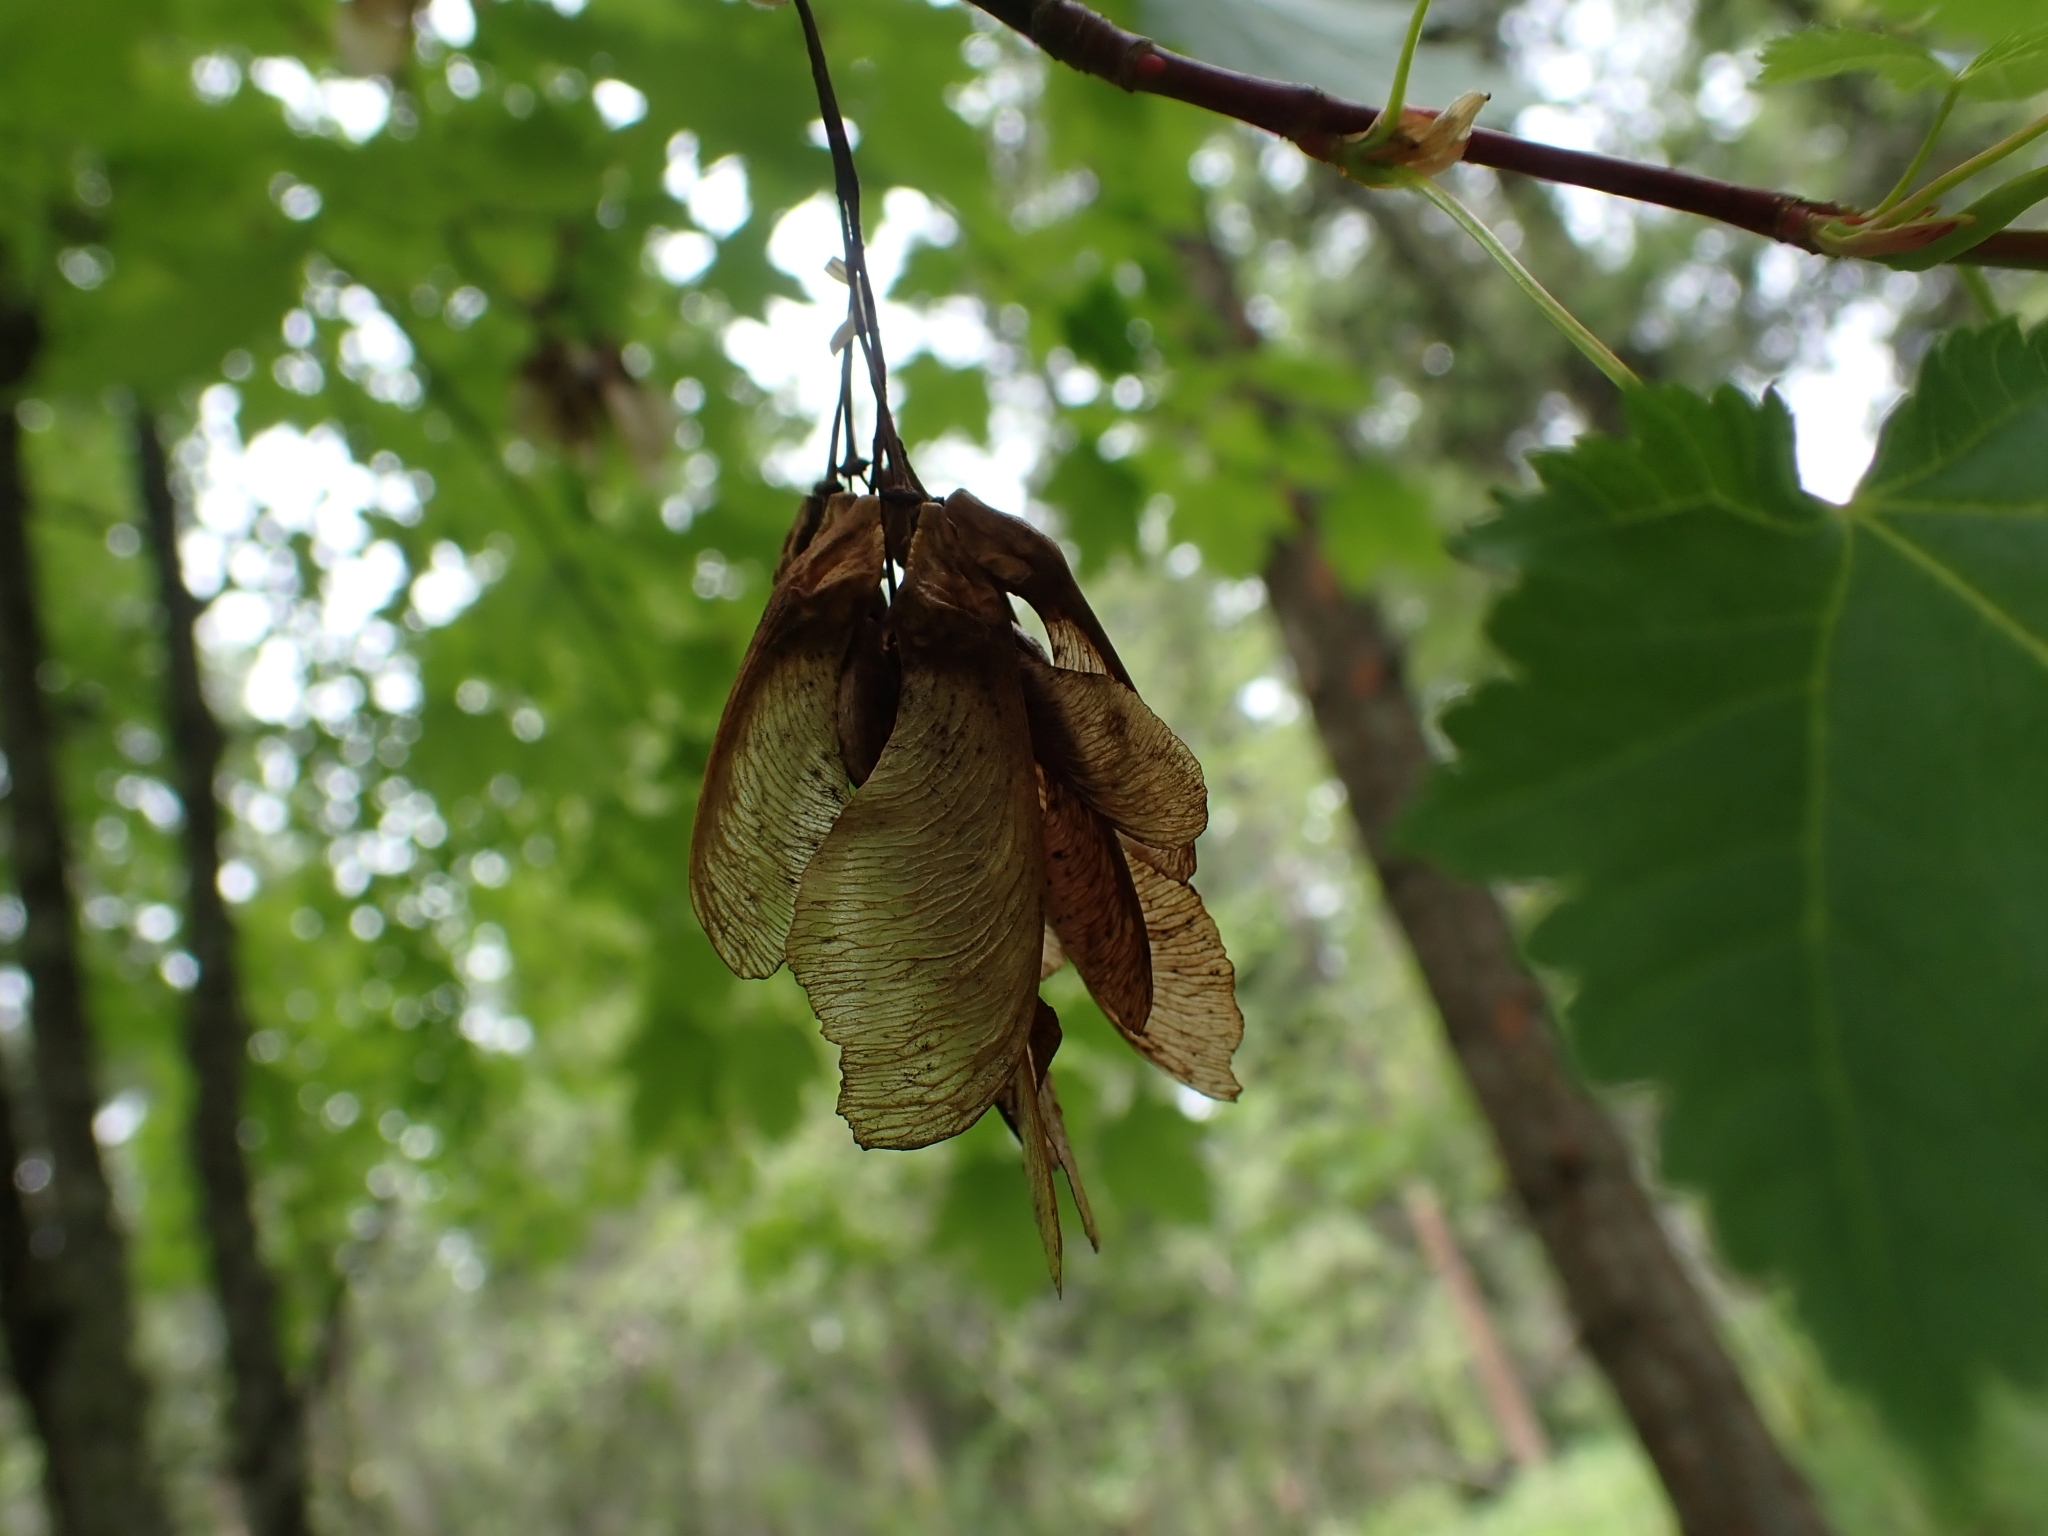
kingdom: Plantae
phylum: Tracheophyta
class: Magnoliopsida
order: Sapindales
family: Sapindaceae
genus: Acer
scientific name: Acer glabrum
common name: Rocky mountain maple
